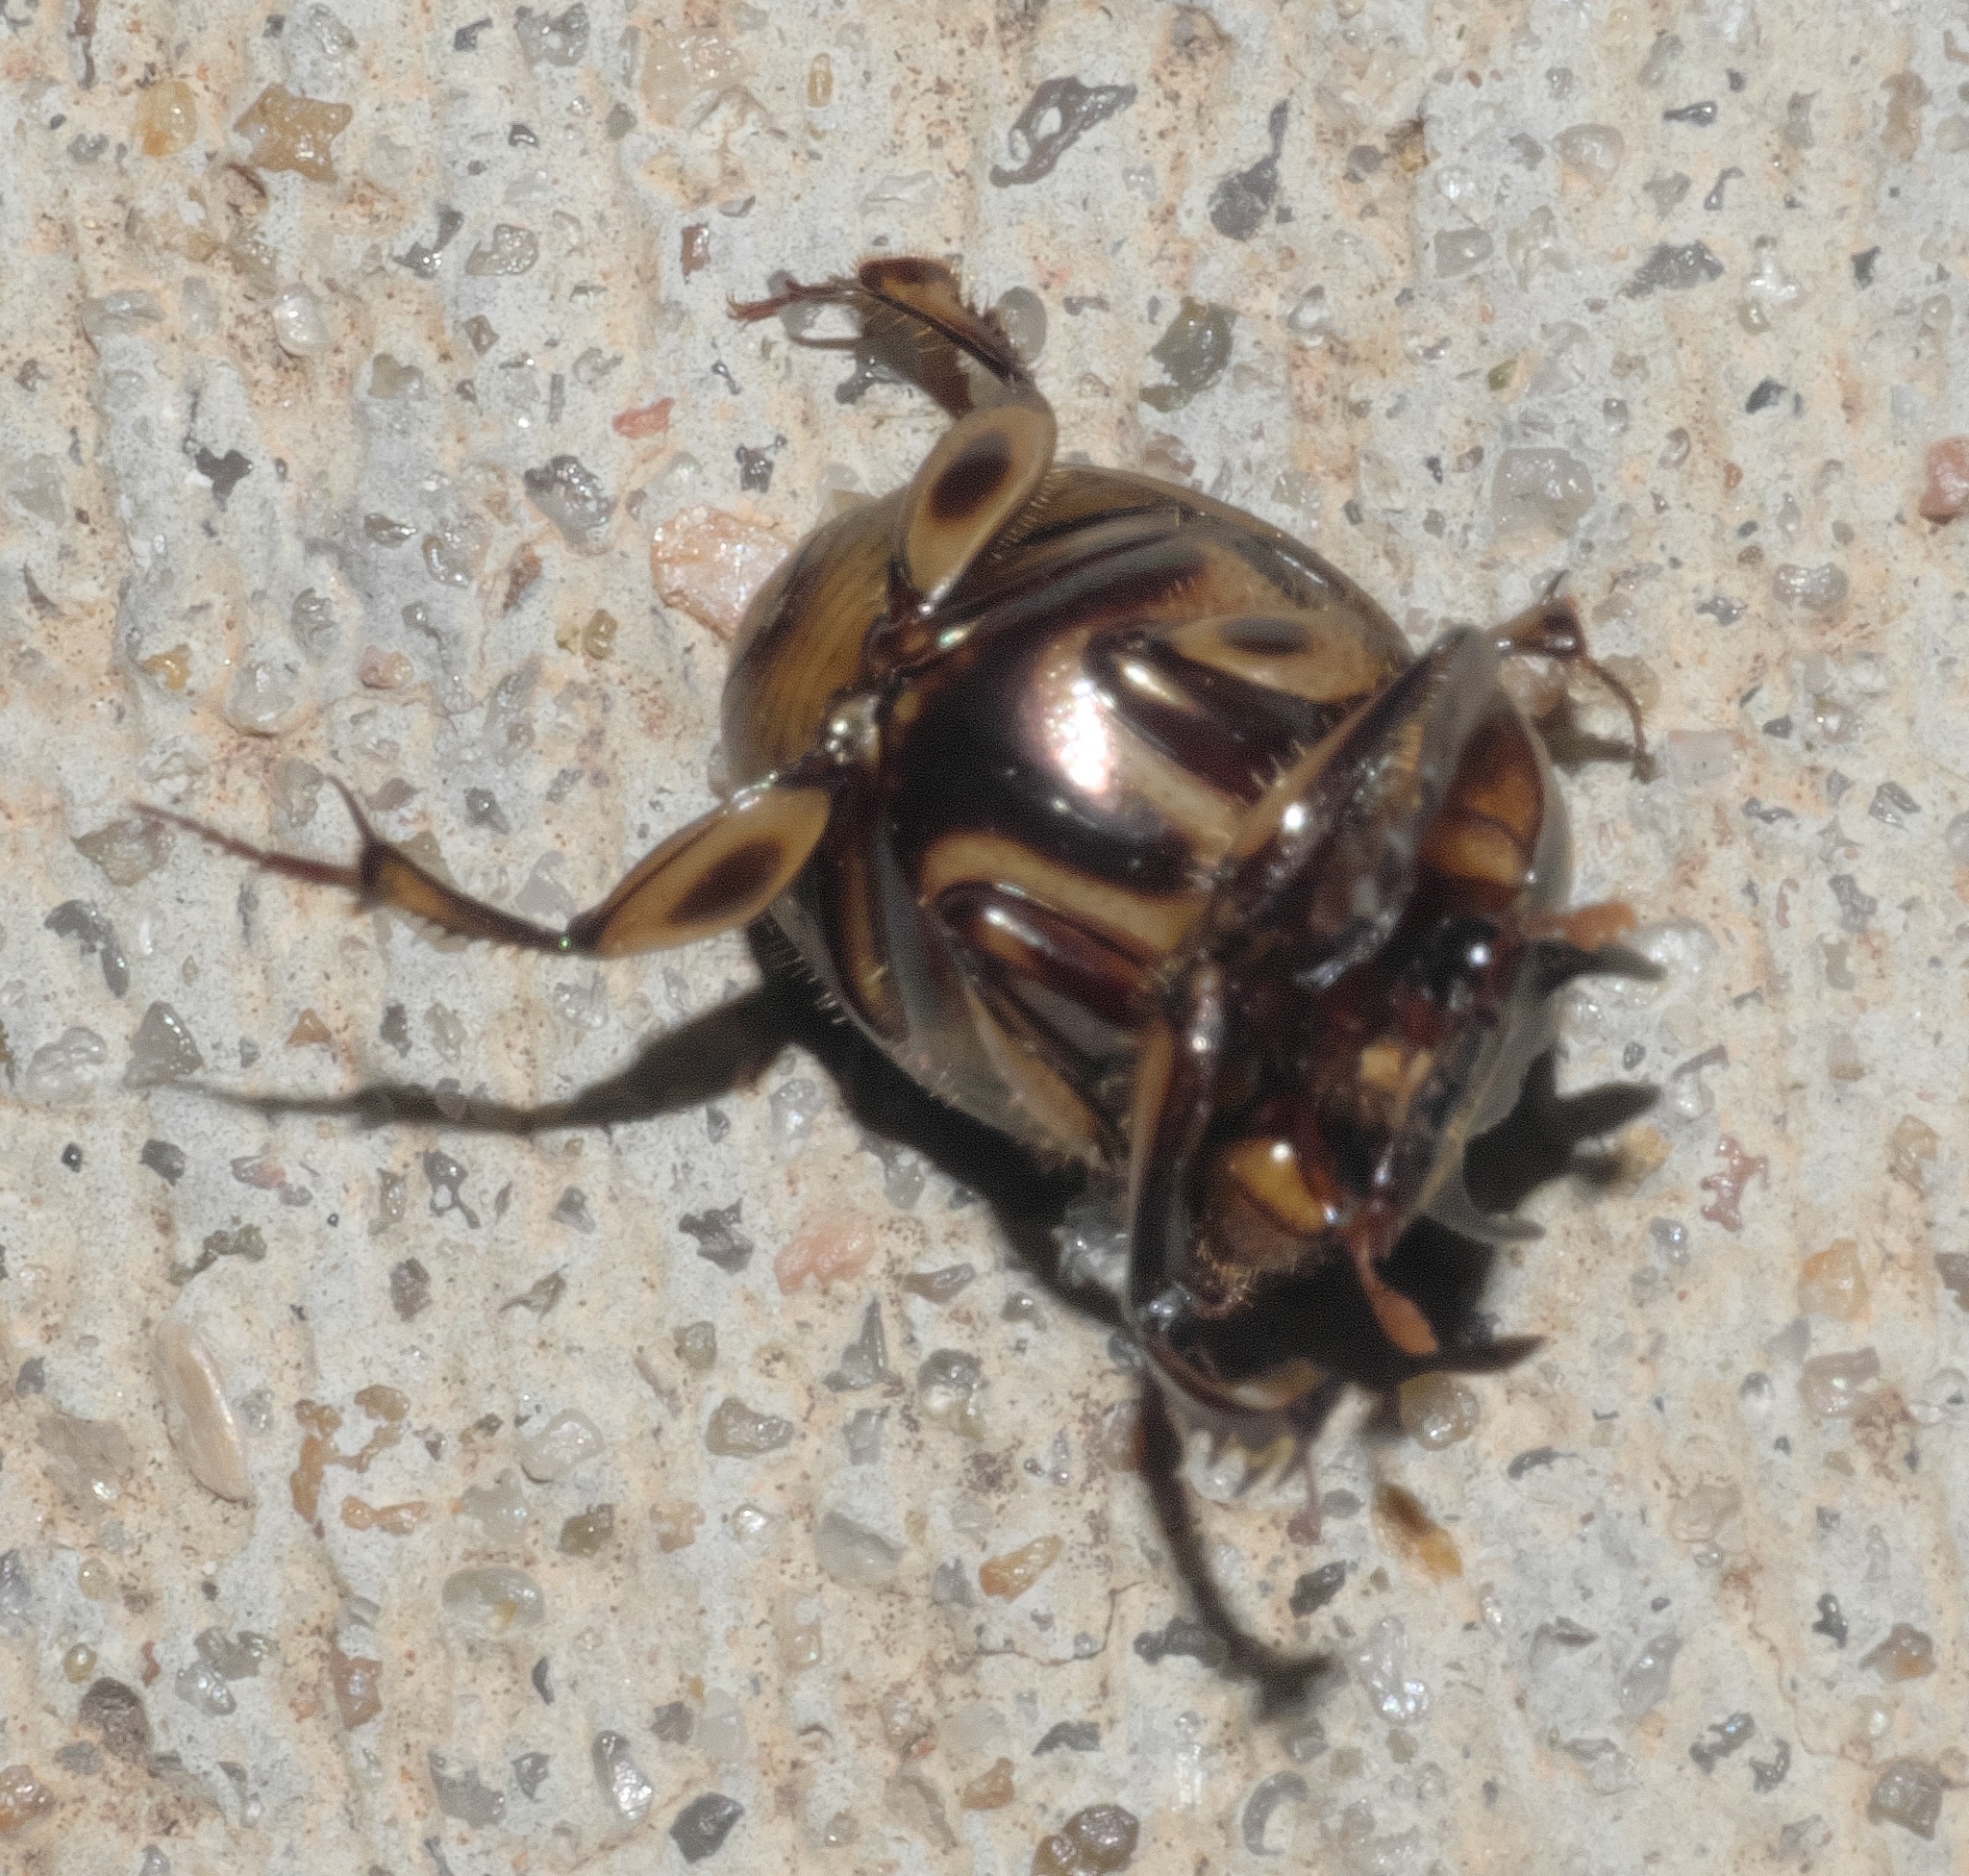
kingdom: Animalia
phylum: Arthropoda
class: Insecta
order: Coleoptera
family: Scarabaeidae
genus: Digitonthophagus
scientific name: Digitonthophagus gazella
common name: Brown dung beetle
